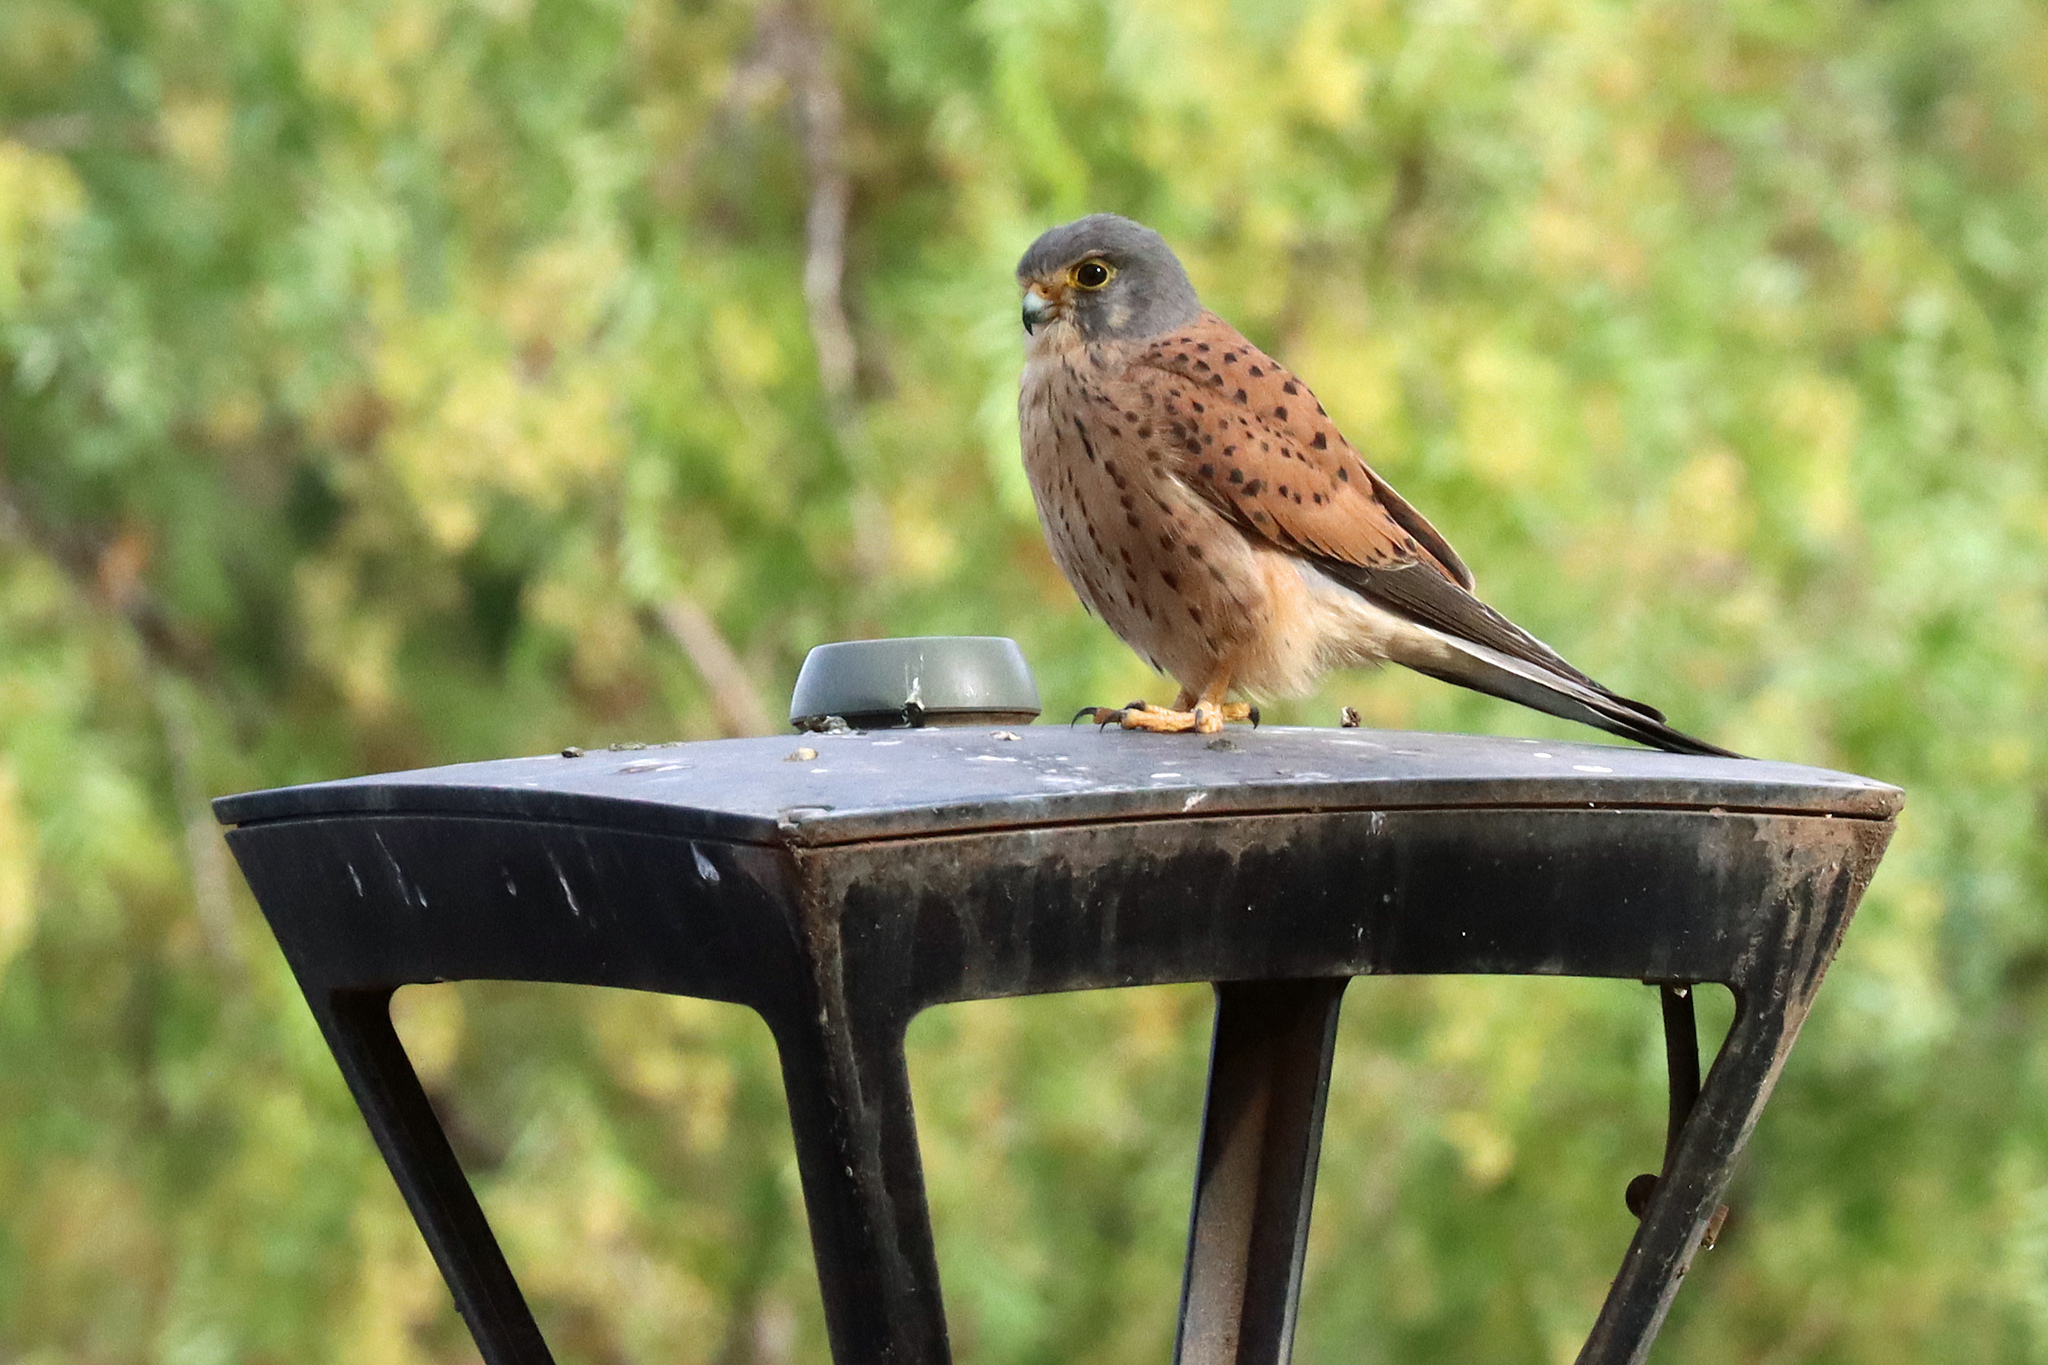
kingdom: Animalia
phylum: Chordata
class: Aves
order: Falconiformes
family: Falconidae
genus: Falco
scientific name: Falco tinnunculus
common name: Common kestrel
